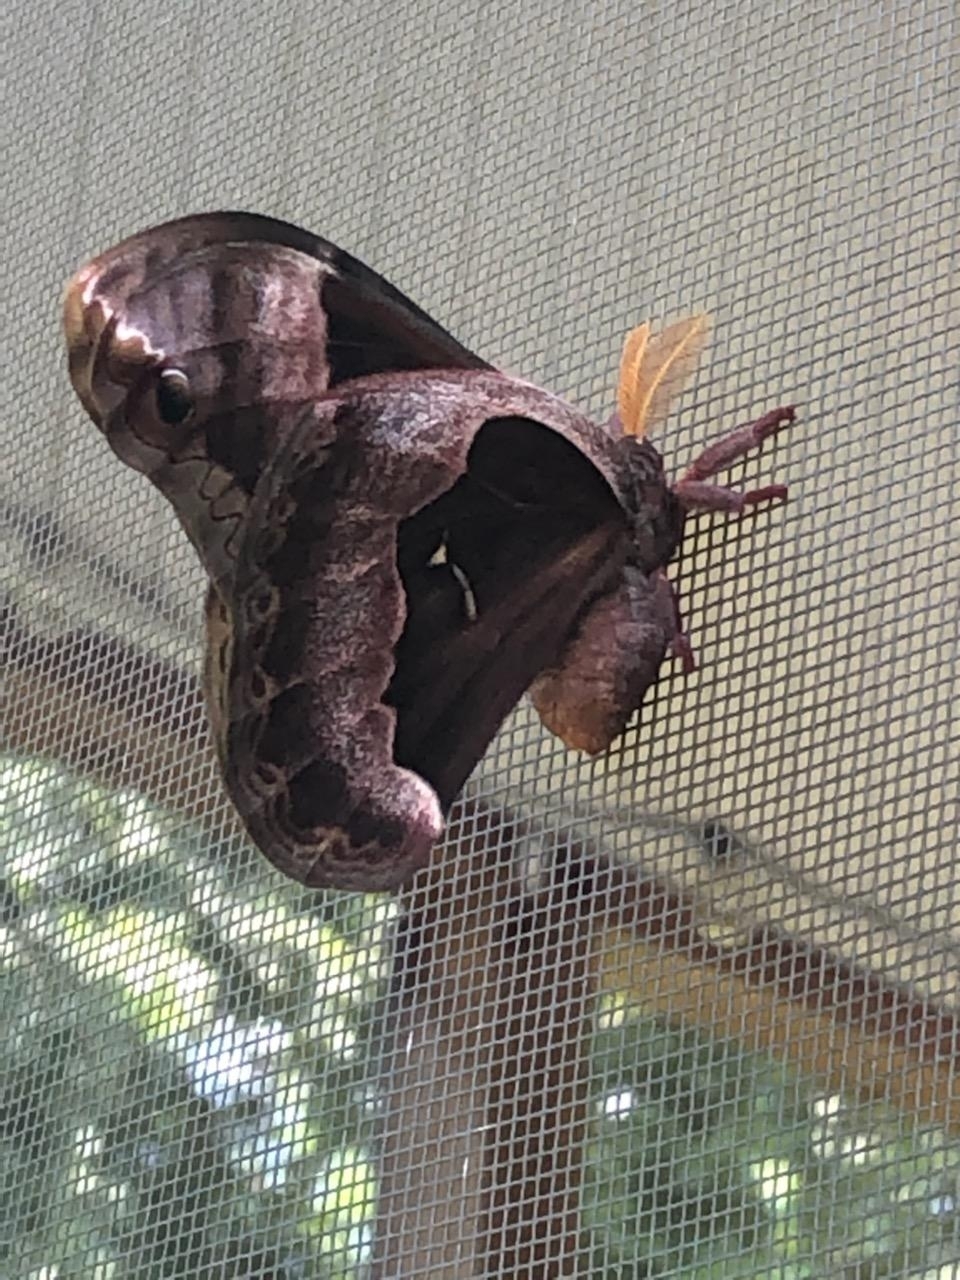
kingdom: Animalia
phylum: Arthropoda
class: Insecta
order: Lepidoptera
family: Saturniidae
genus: Callosamia
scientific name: Callosamia angulifera
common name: Tulip tree silkmoth
